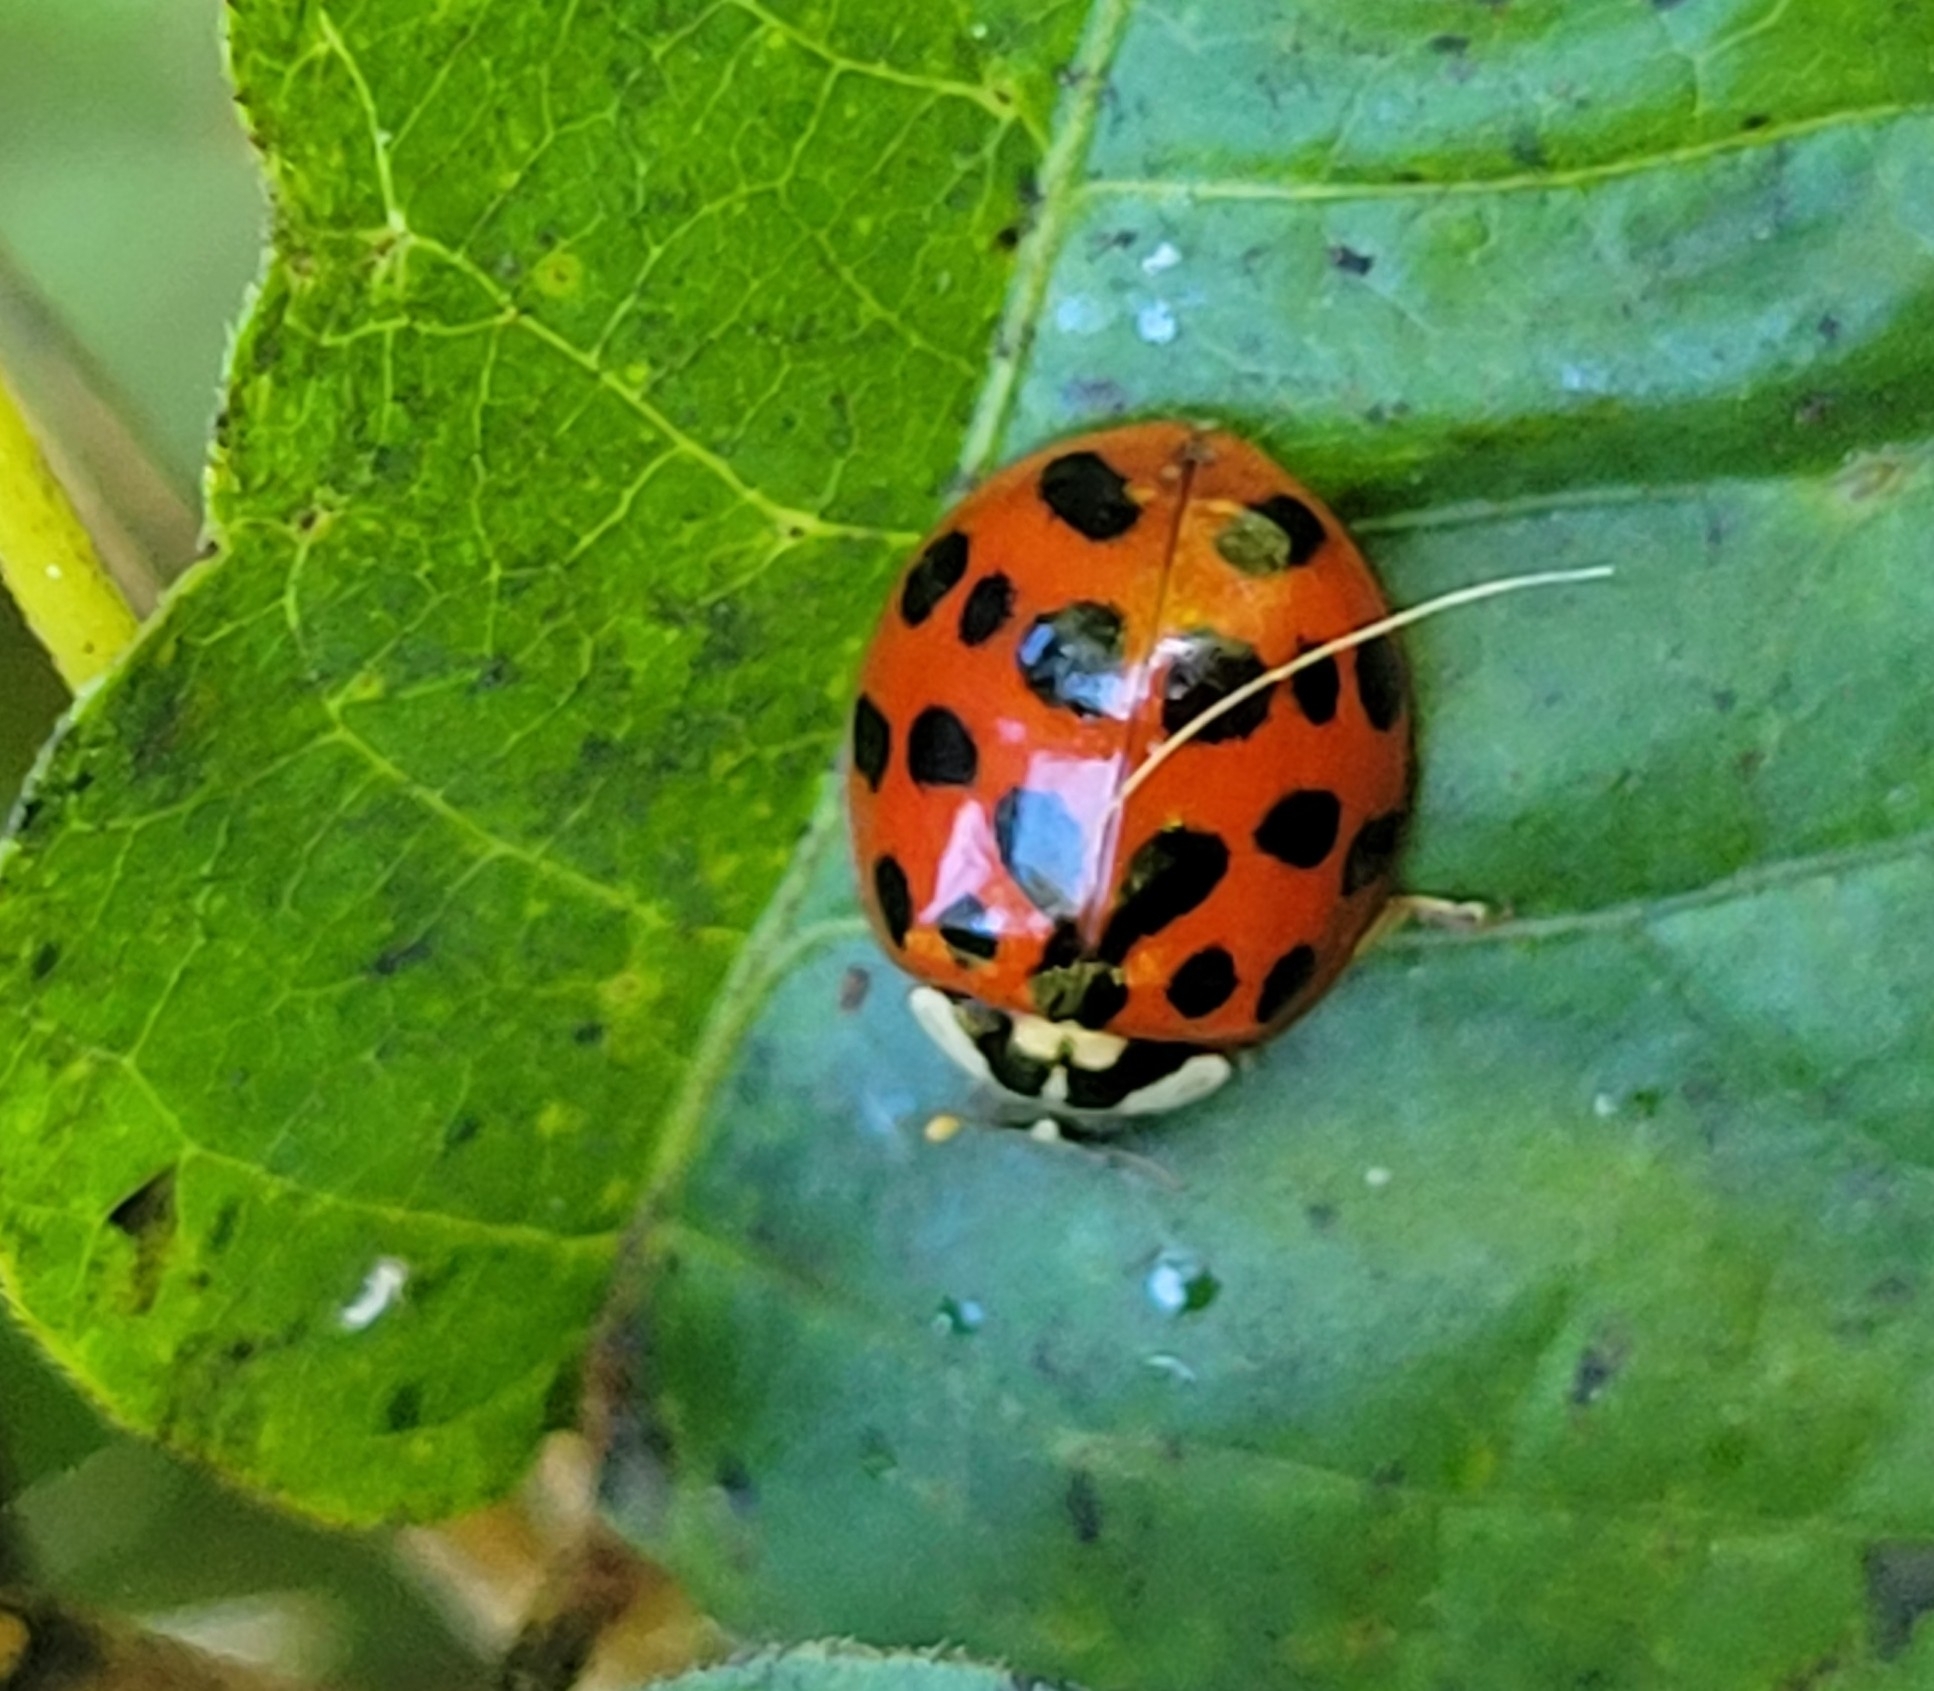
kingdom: Animalia
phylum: Arthropoda
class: Insecta
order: Coleoptera
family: Coccinellidae
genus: Harmonia
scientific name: Harmonia axyridis
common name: Harlequin ladybird
